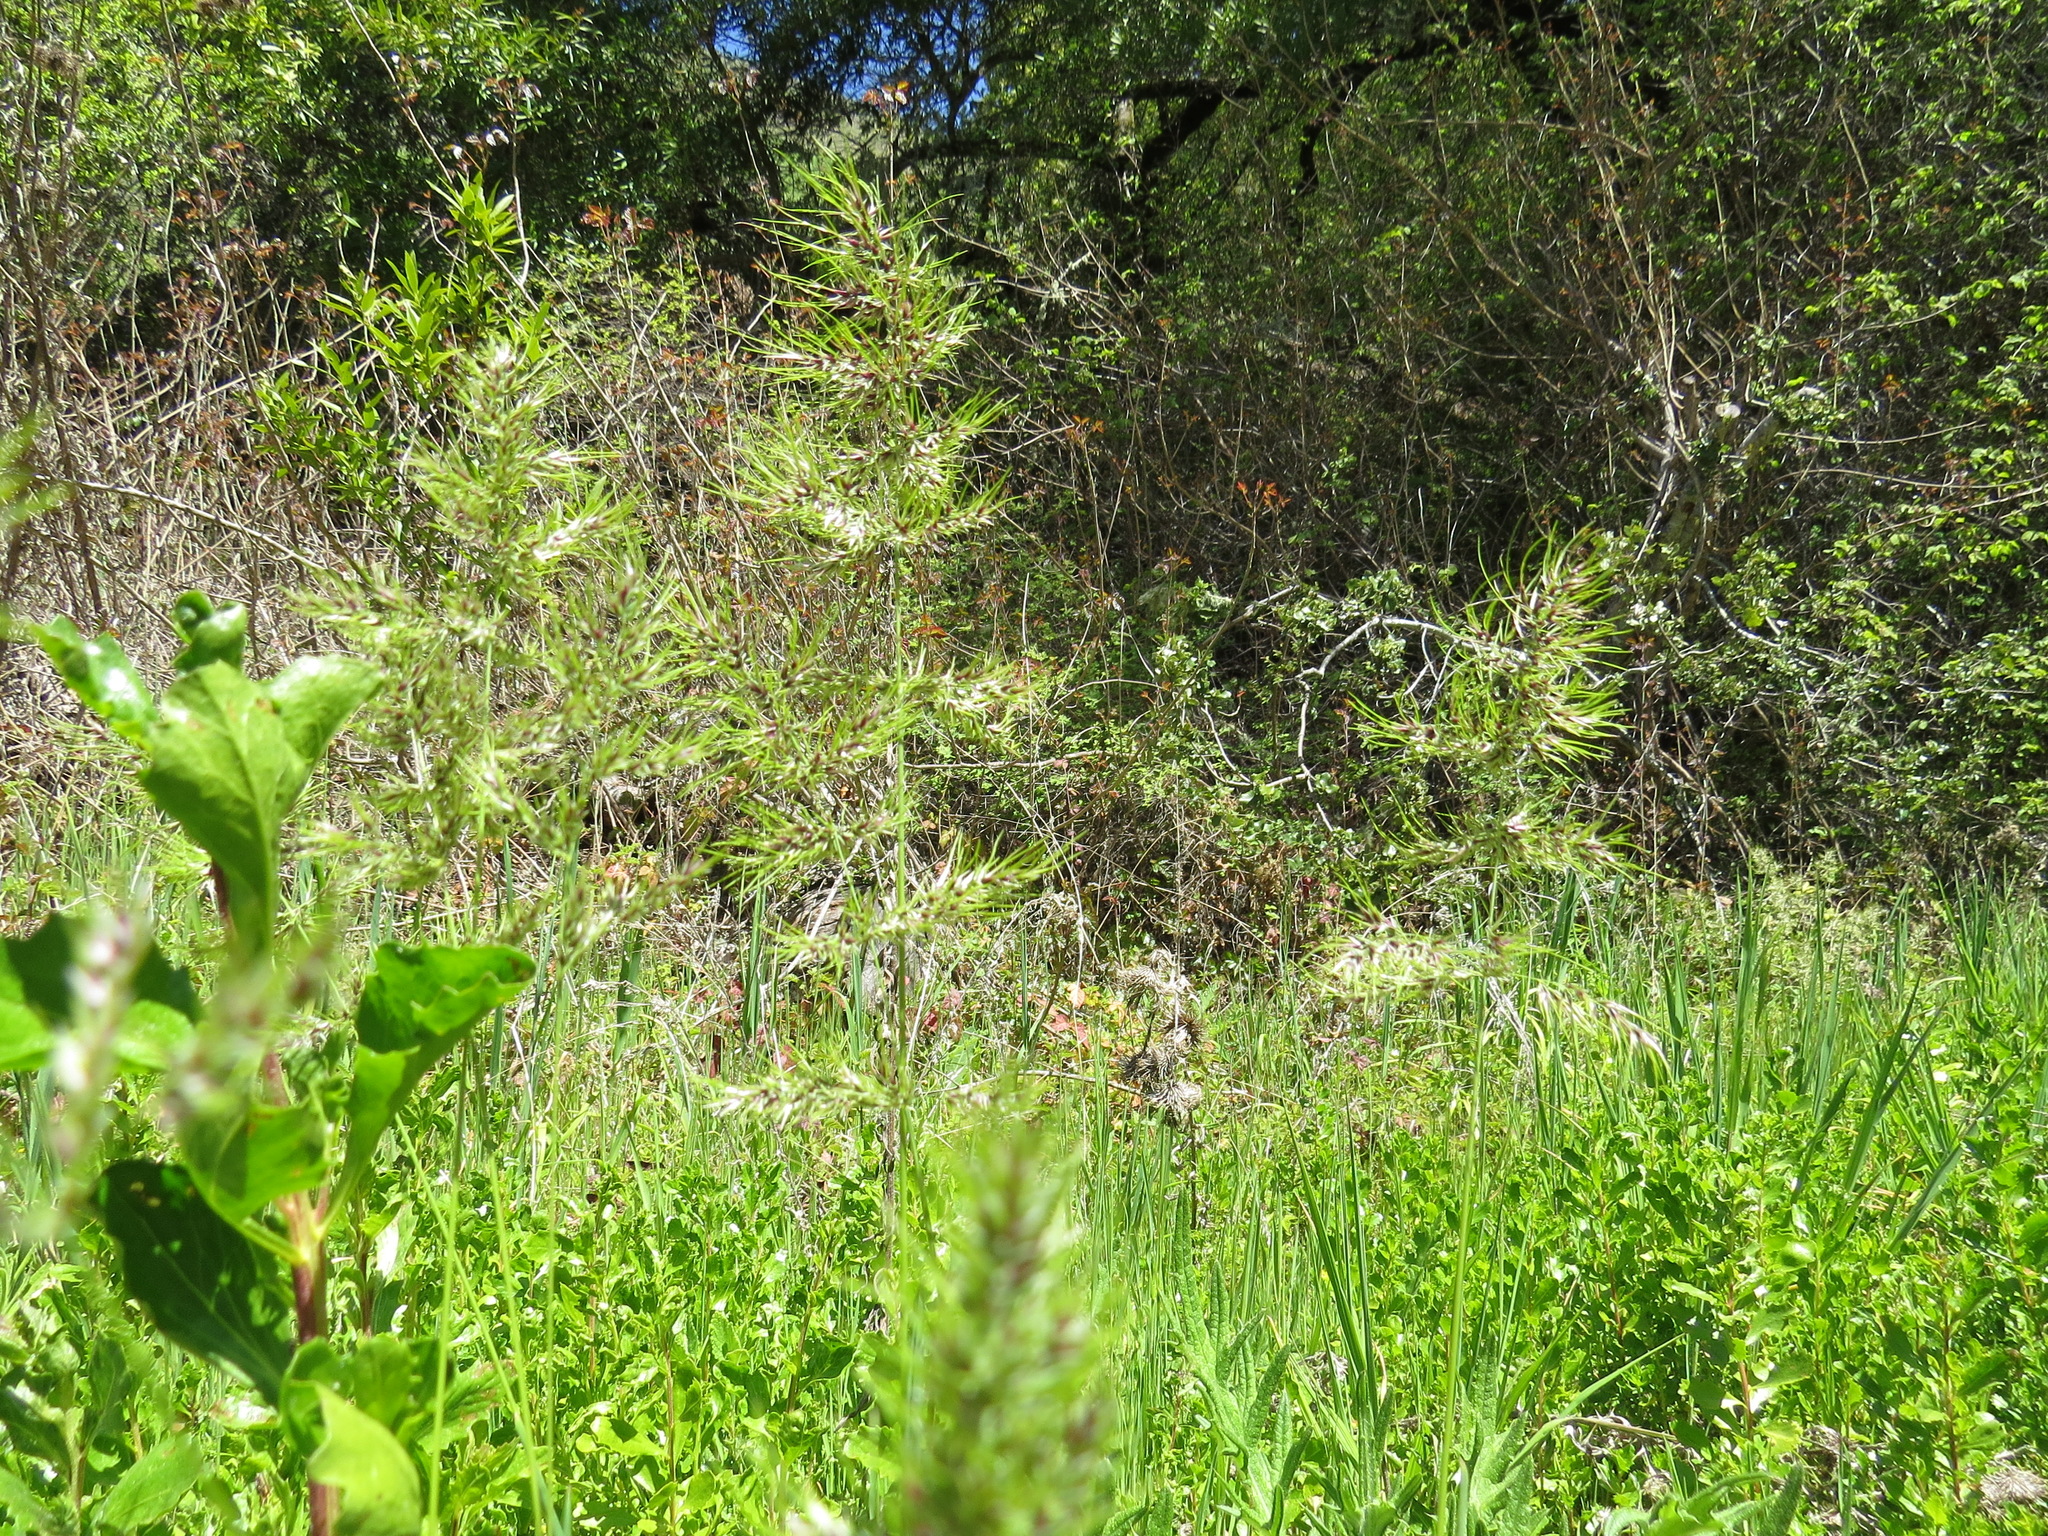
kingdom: Plantae
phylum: Tracheophyta
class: Liliopsida
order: Poales
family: Poaceae
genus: Poa
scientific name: Poa bulbosa
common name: Bulbous bluegrass
